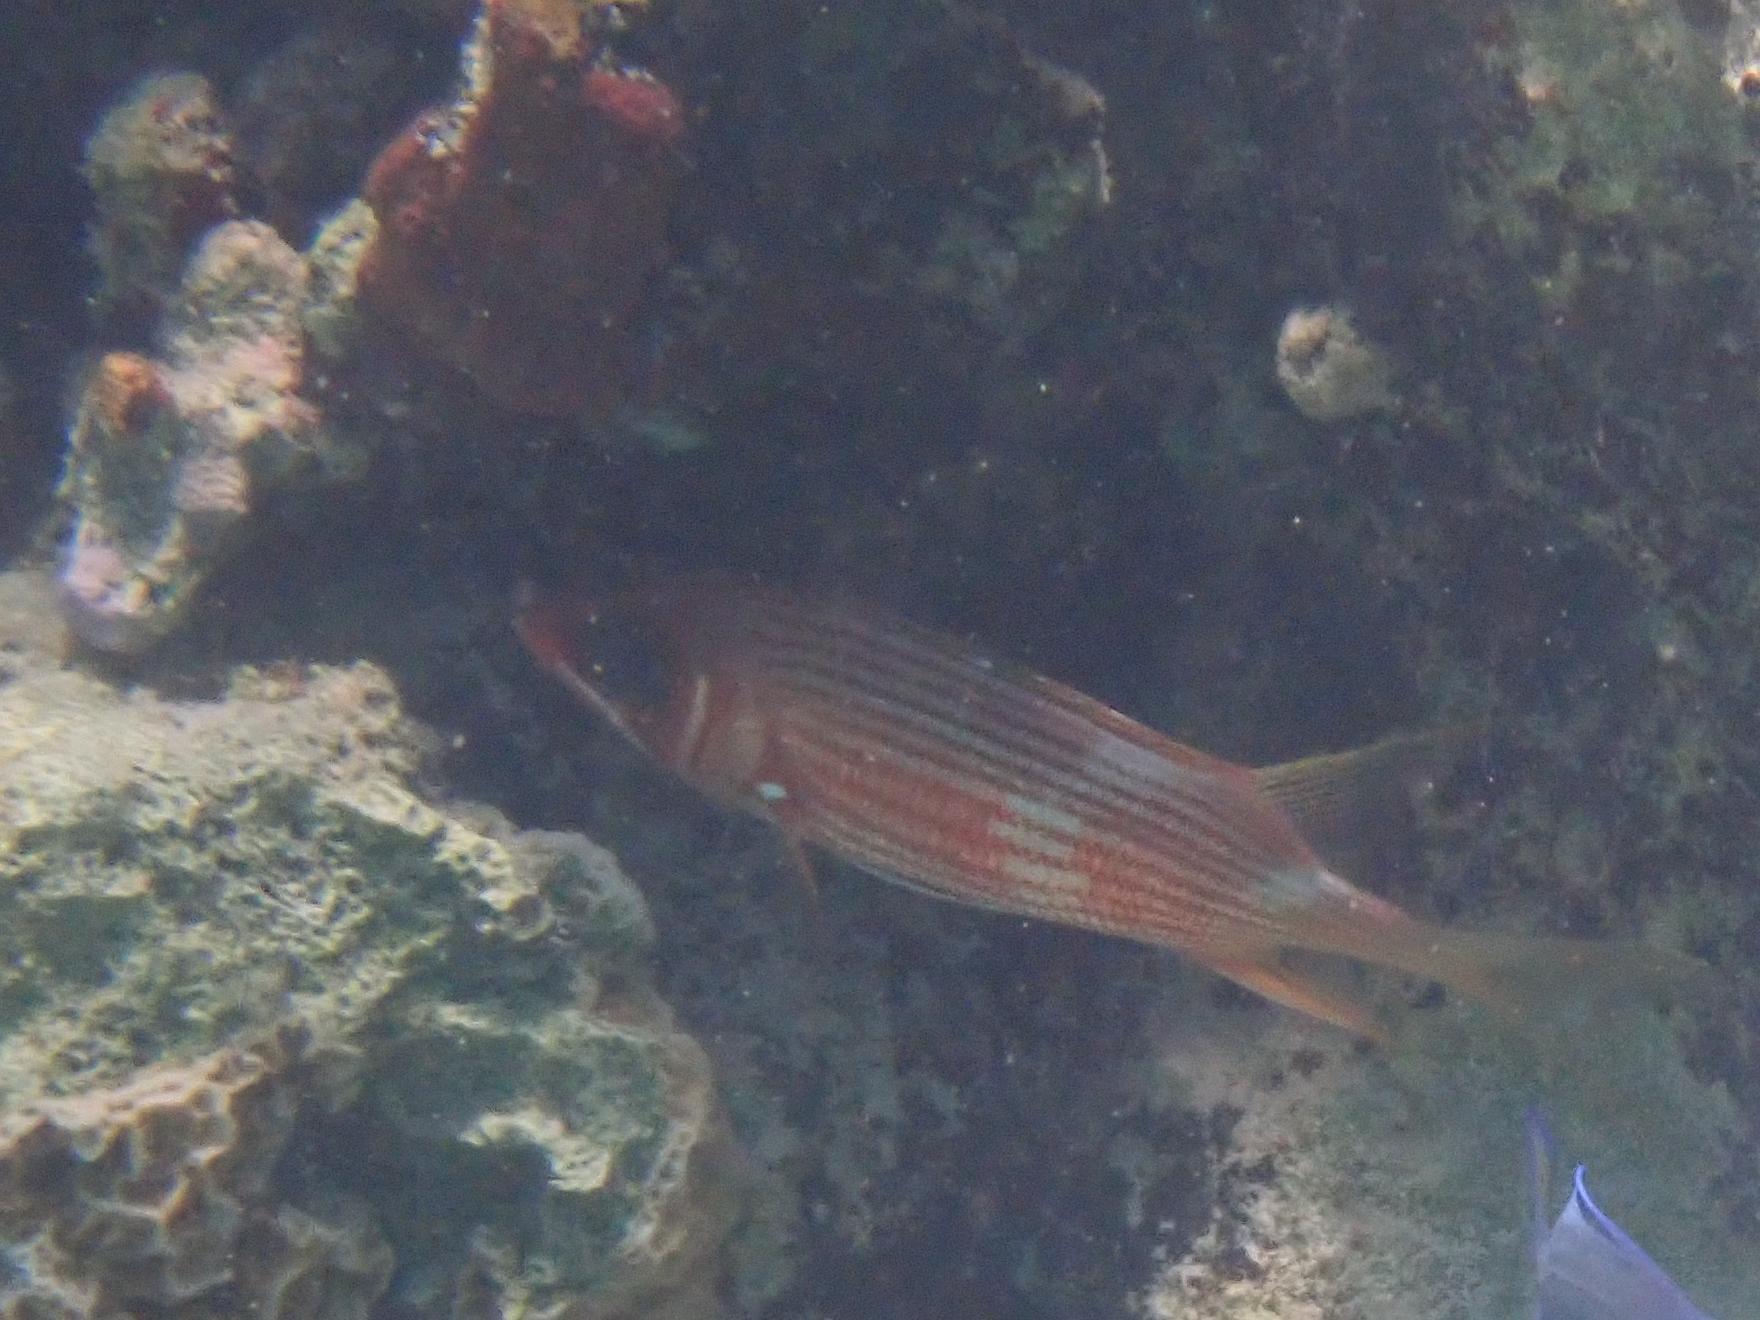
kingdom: Animalia
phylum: Chordata
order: Beryciformes
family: Holocentridae
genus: Holocentrus
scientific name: Holocentrus rufus
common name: Longspine squirrelfish
